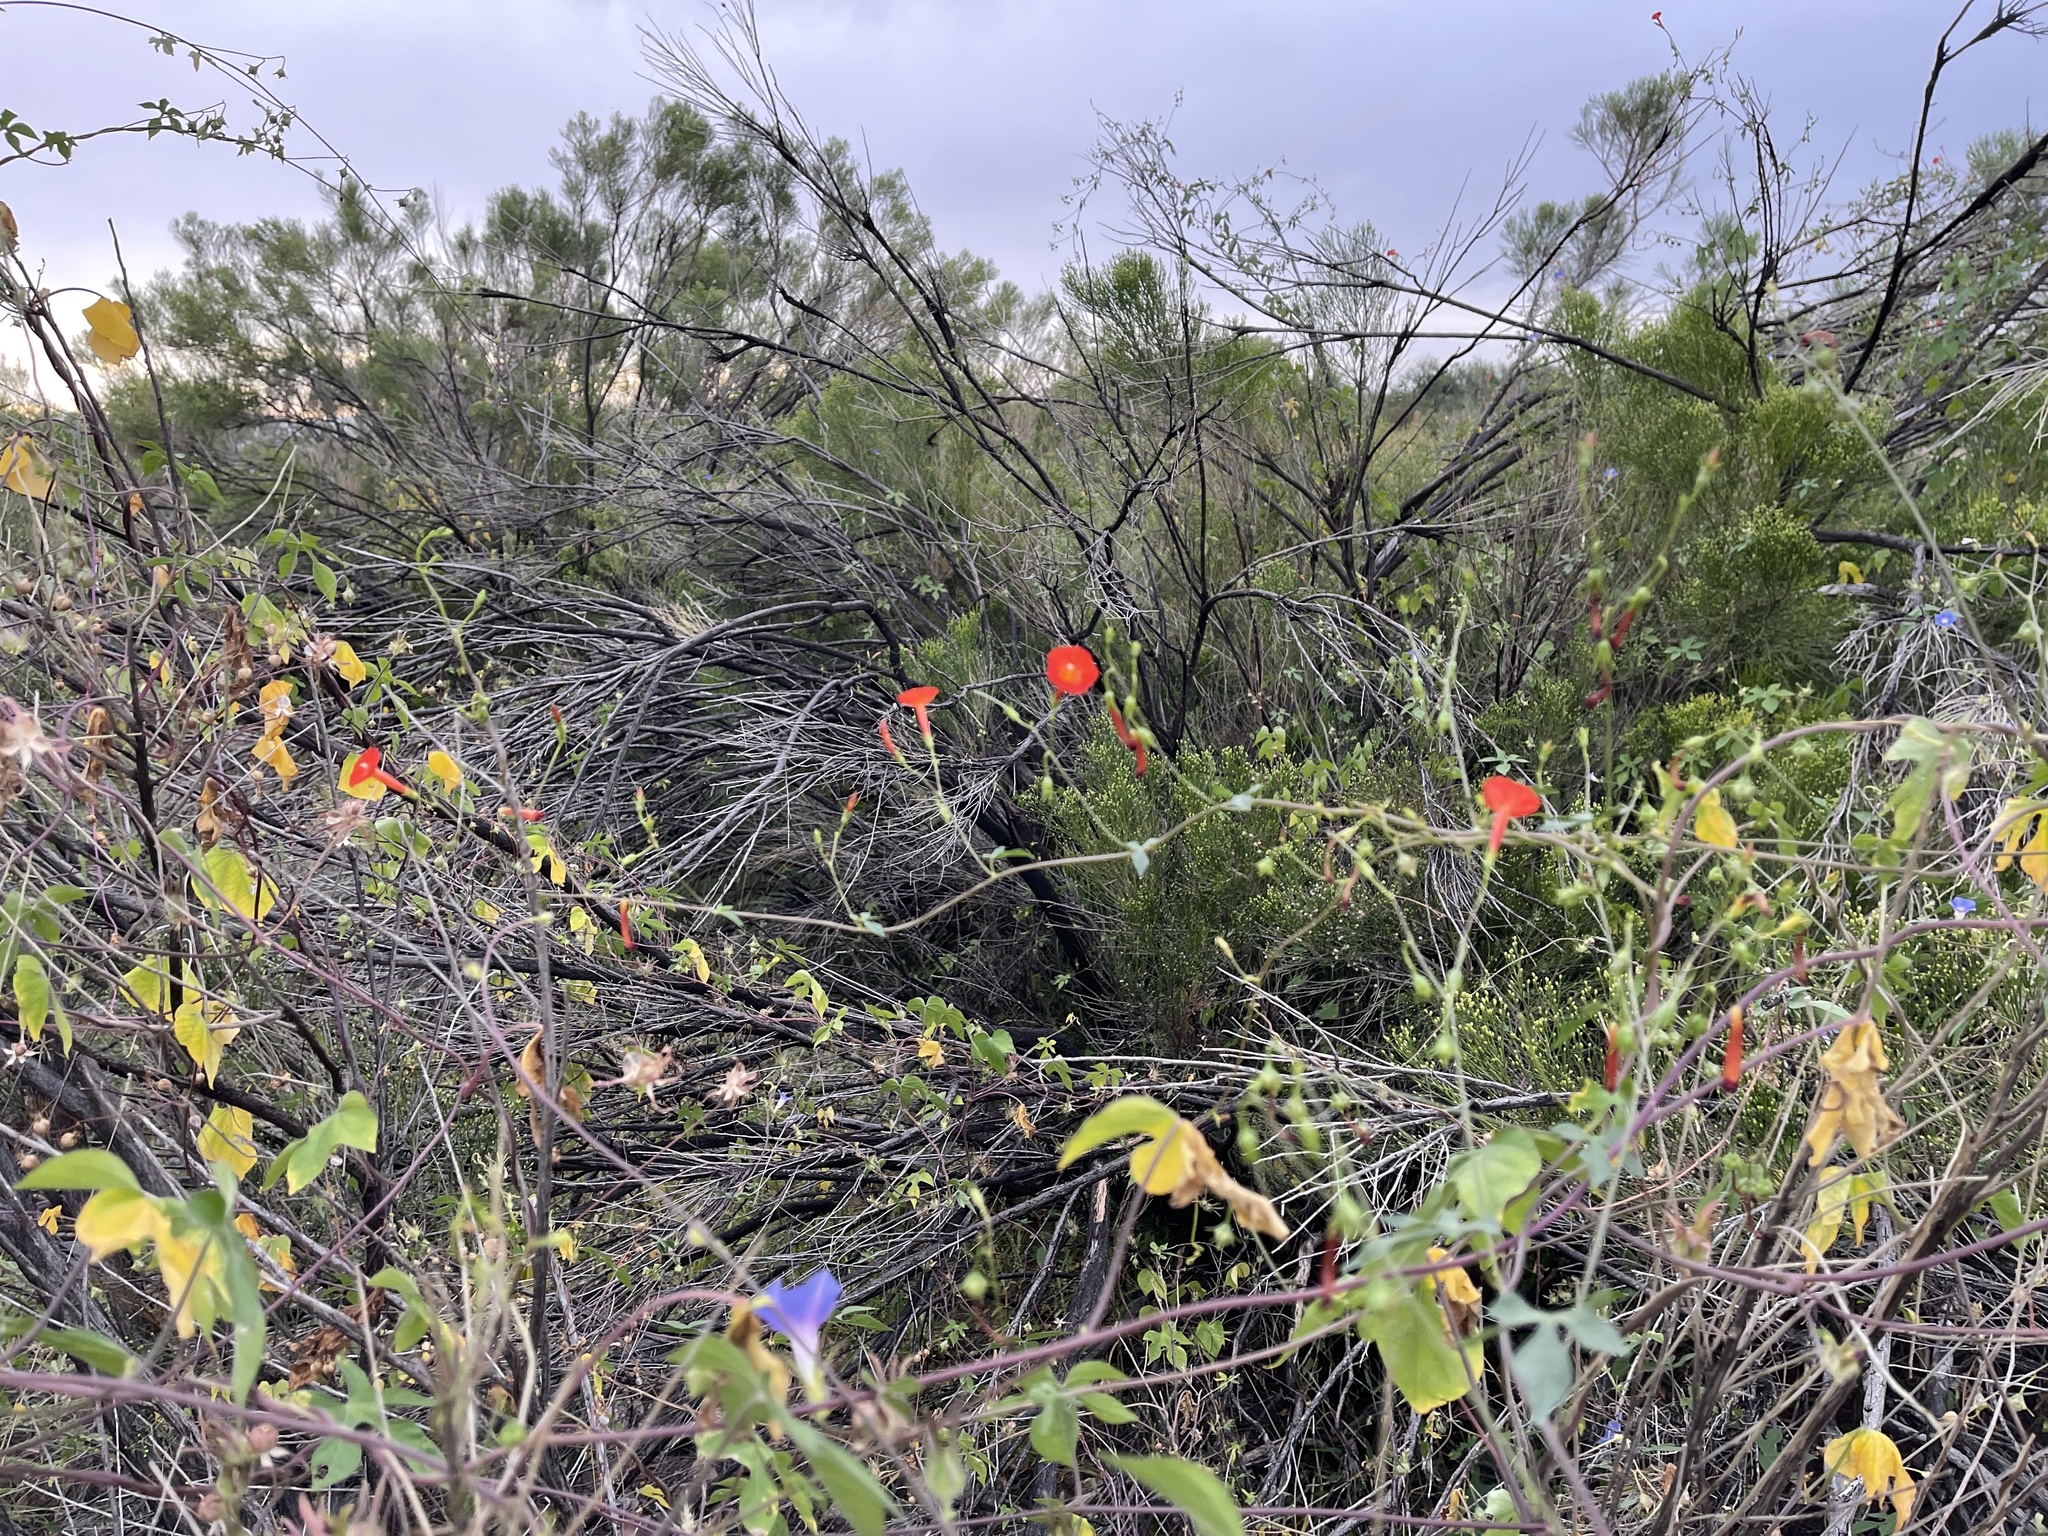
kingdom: Plantae
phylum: Tracheophyta
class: Magnoliopsida
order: Solanales
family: Convolvulaceae
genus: Ipomoea
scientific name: Ipomoea cristulata
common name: Trans-pecos morning-glory
